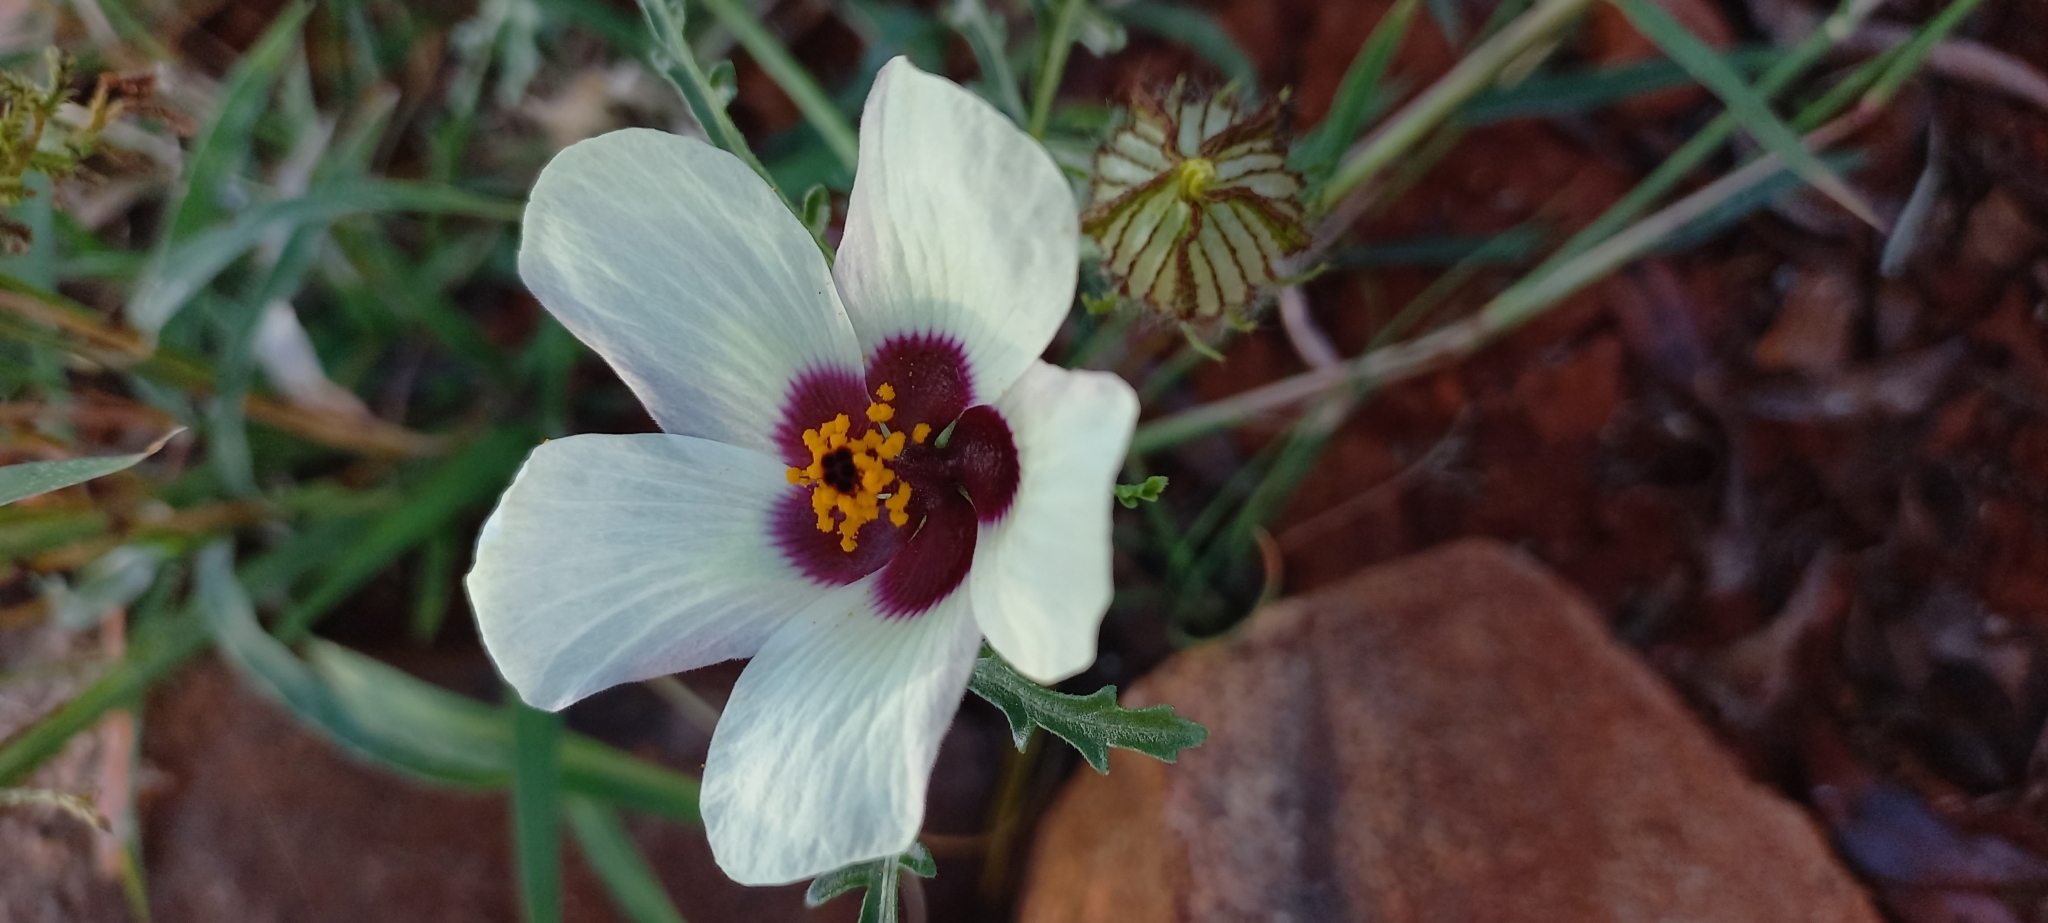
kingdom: Plantae
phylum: Tracheophyta
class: Magnoliopsida
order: Malvales
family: Malvaceae
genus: Hibiscus
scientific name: Hibiscus trionum
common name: Bladder ketmia
